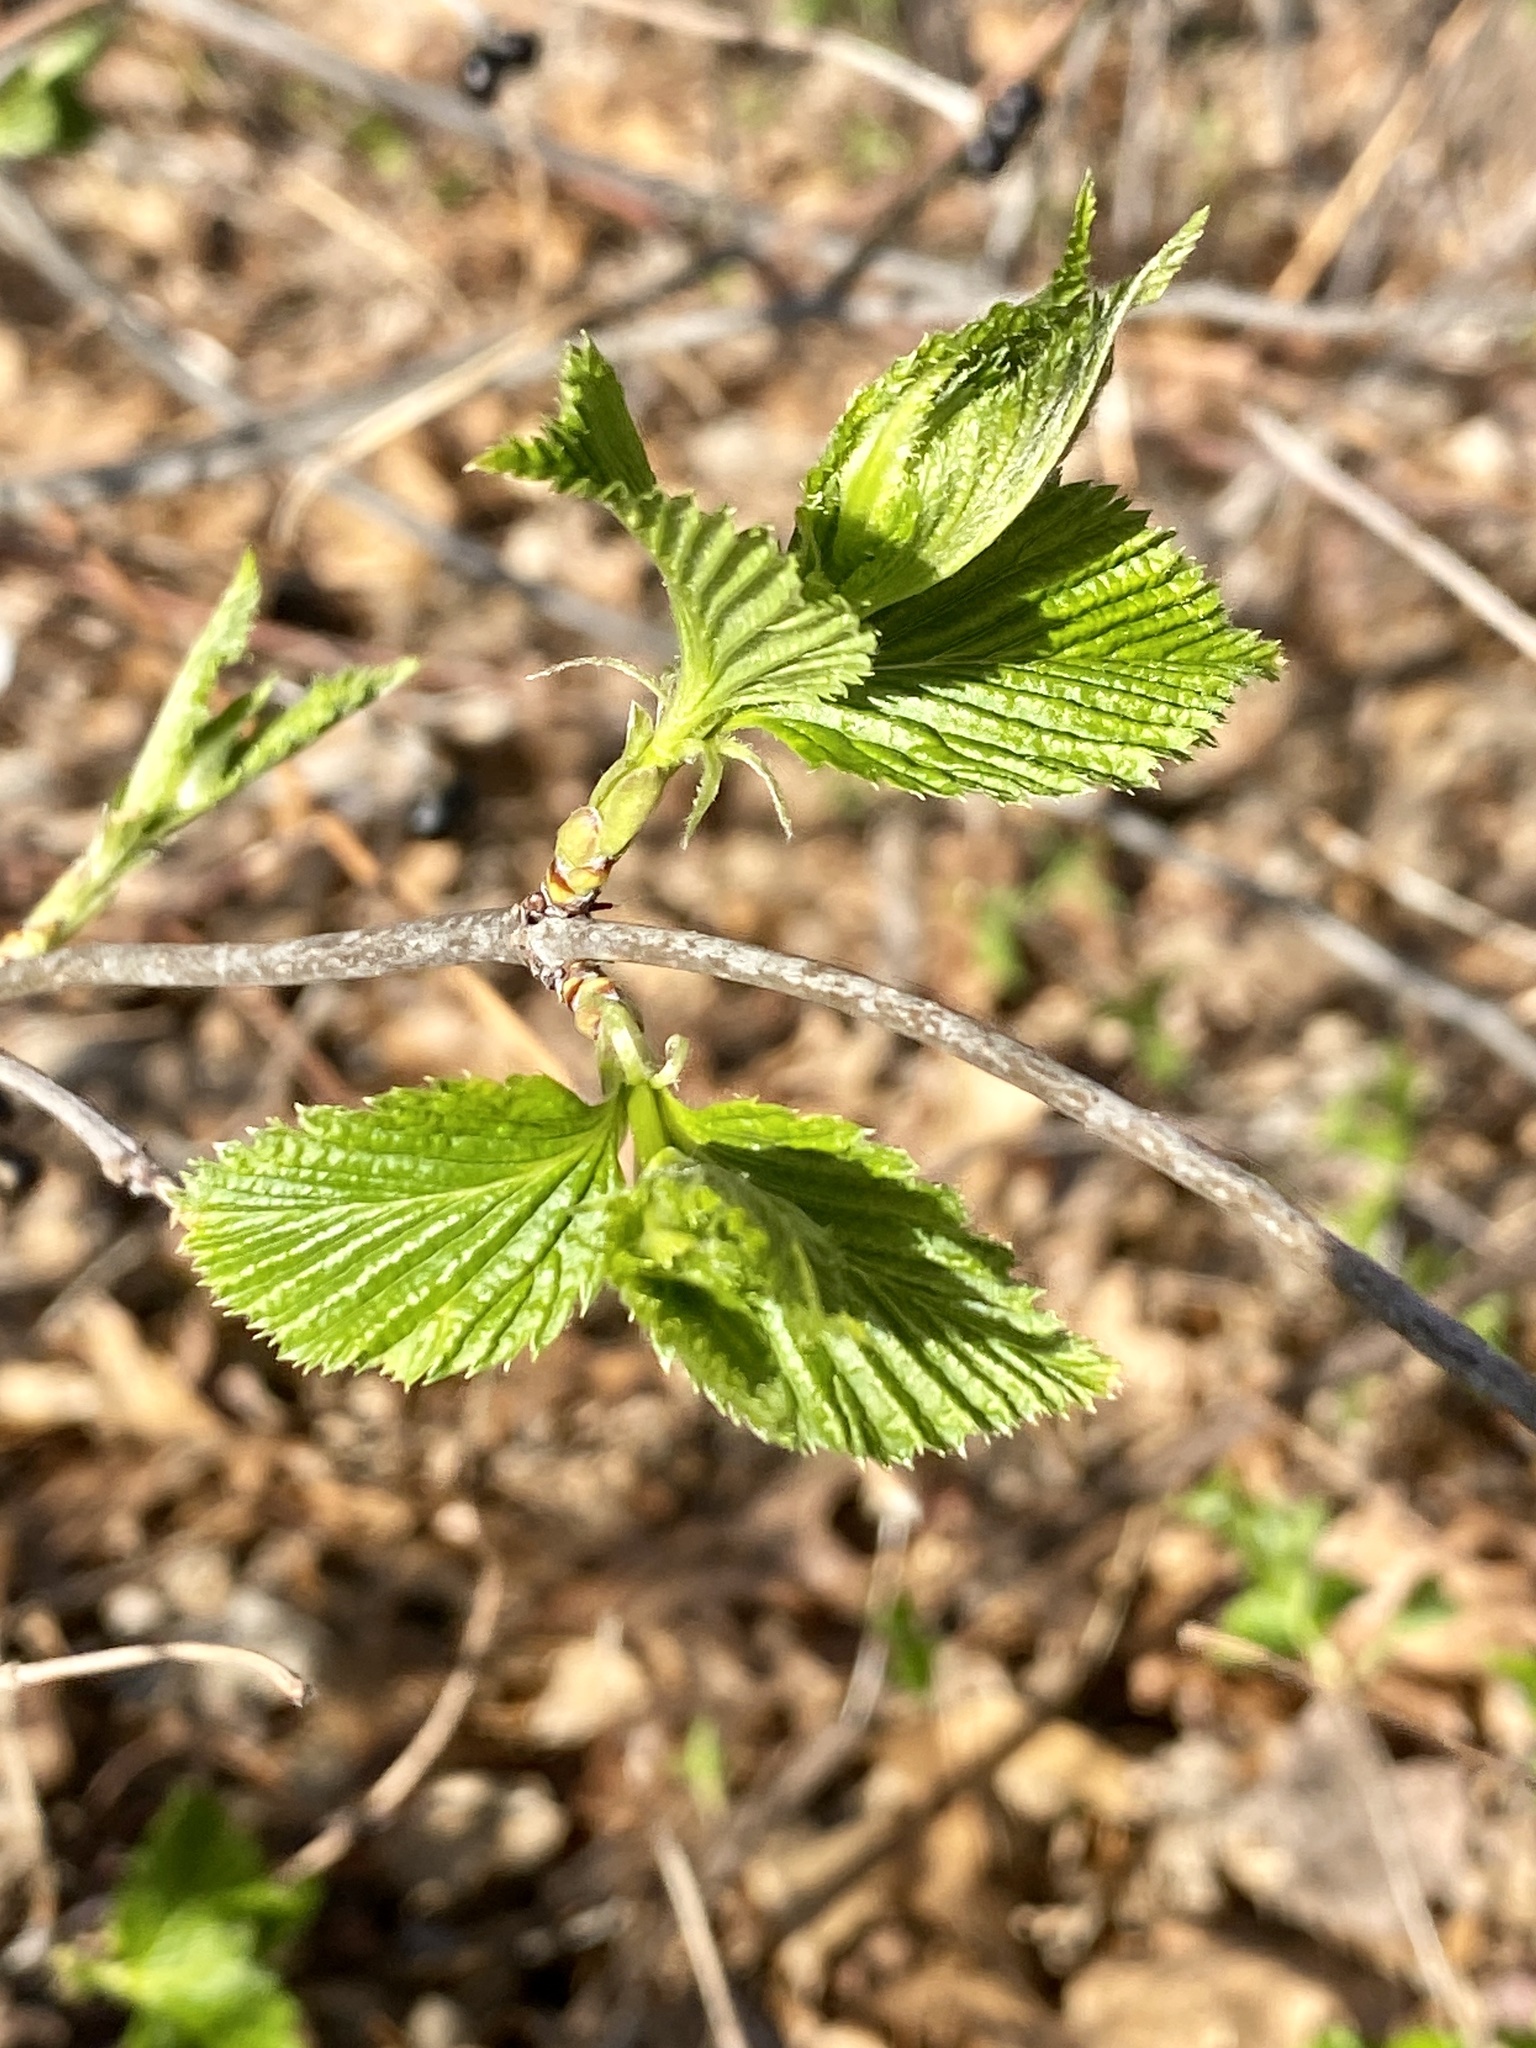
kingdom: Plantae
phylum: Tracheophyta
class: Magnoliopsida
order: Rosales
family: Rosaceae
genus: Rhodotypos
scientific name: Rhodotypos scandens
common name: Jetbead
